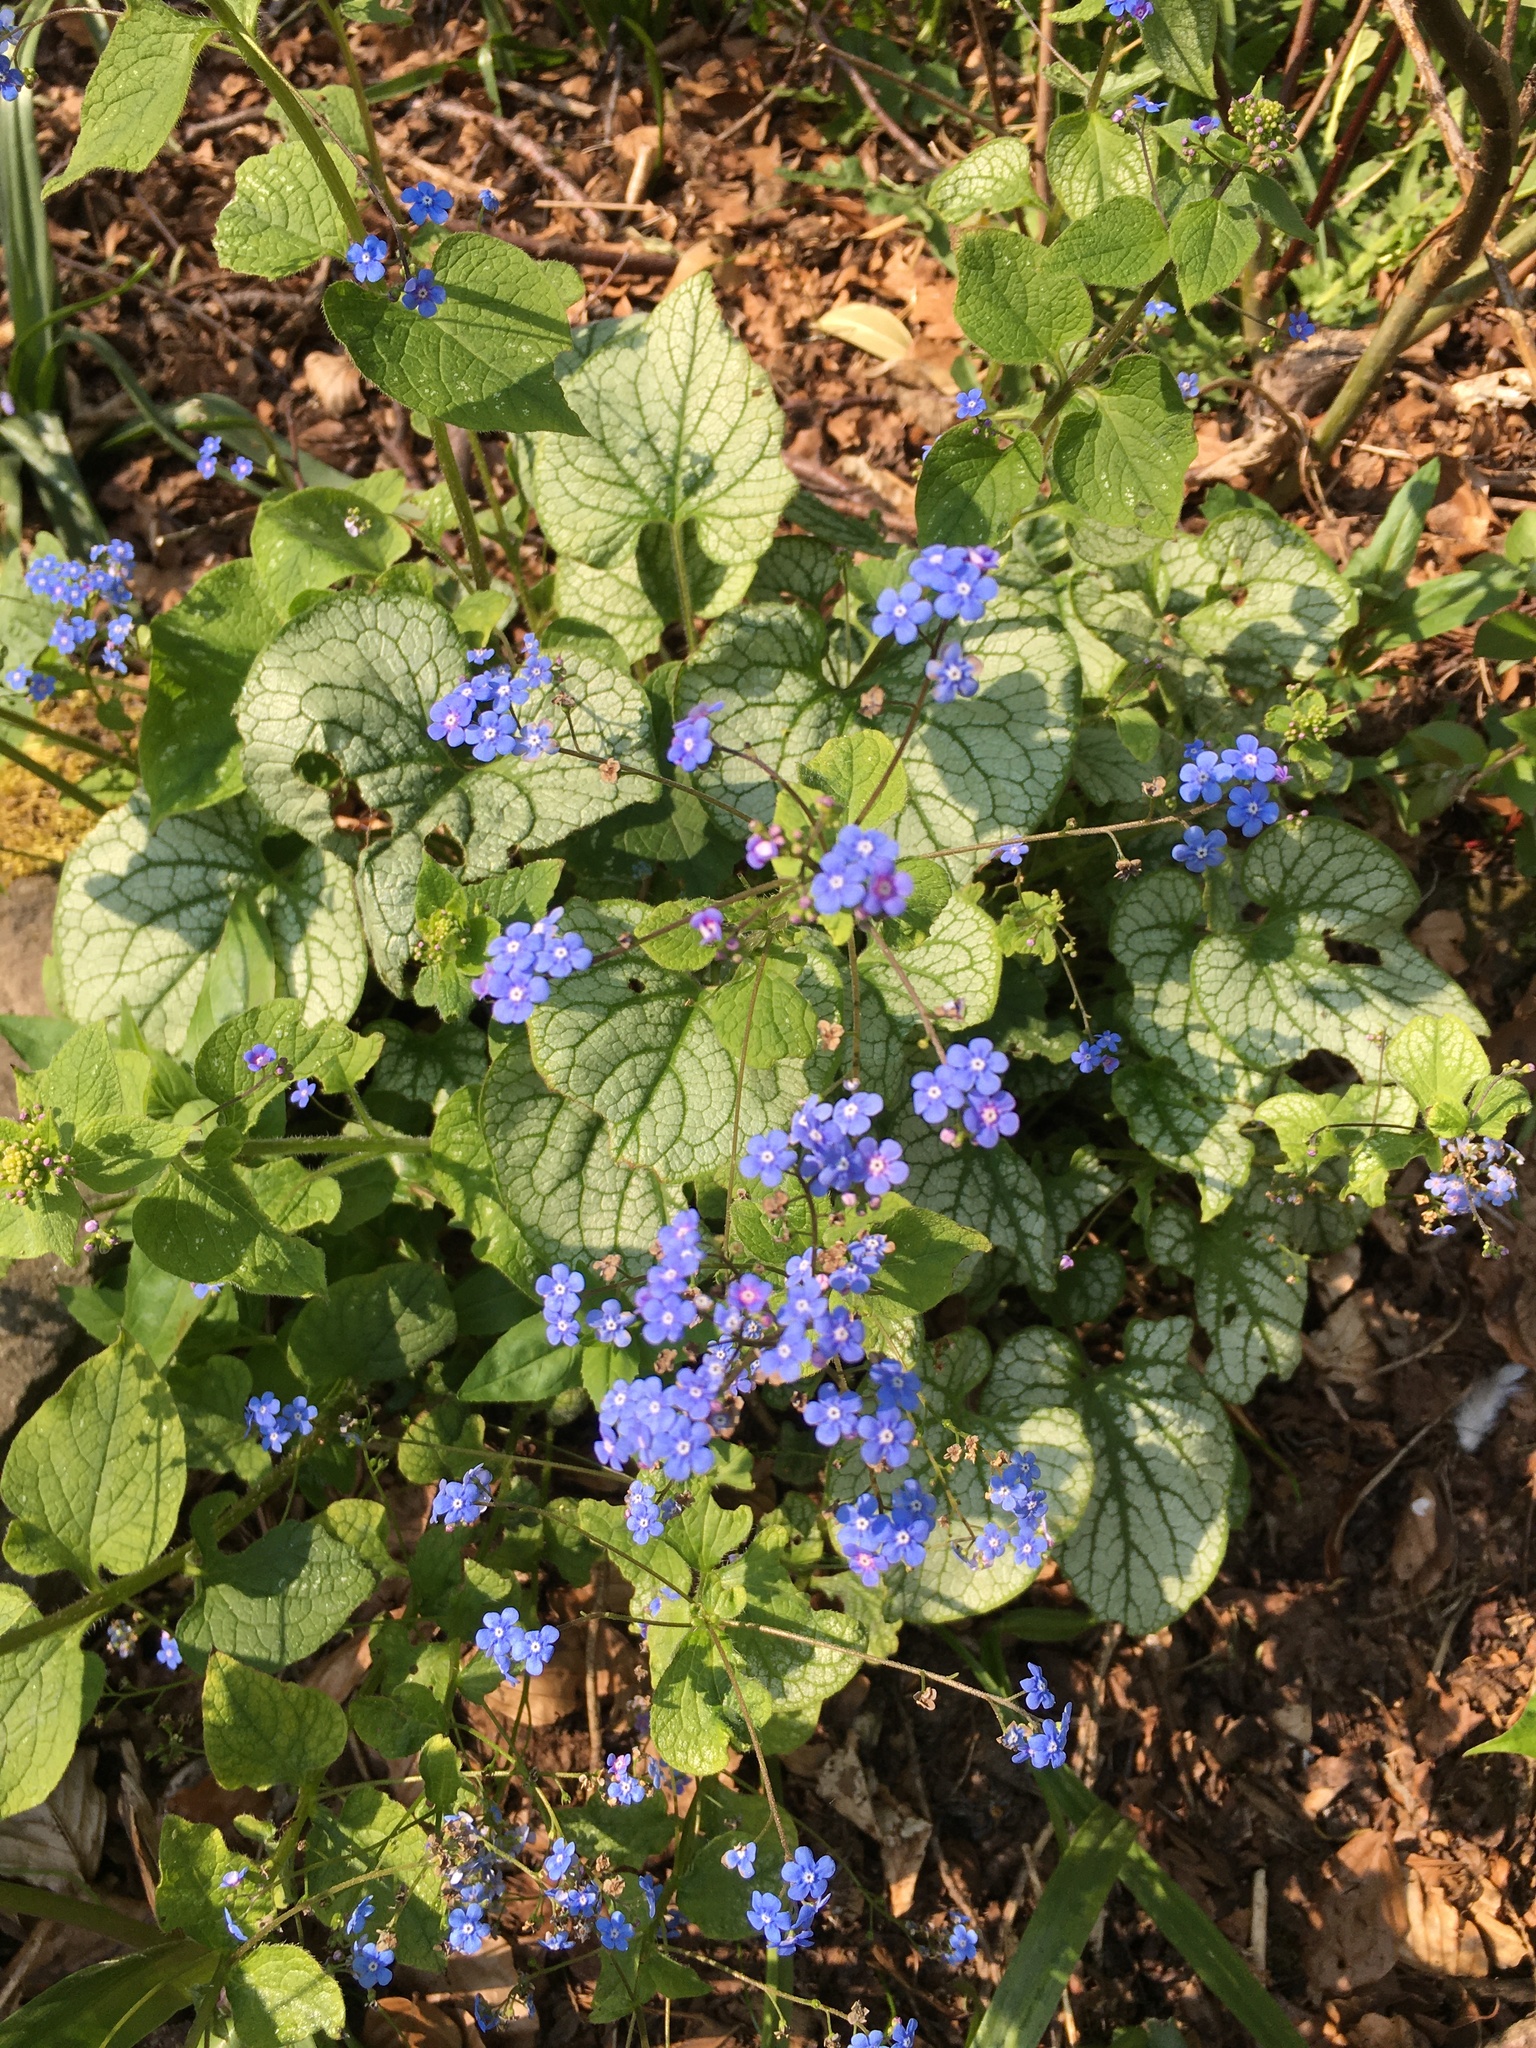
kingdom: Plantae
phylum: Tracheophyta
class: Magnoliopsida
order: Boraginales
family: Boraginaceae
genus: Brunnera
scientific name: Brunnera macrophylla
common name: Great forget-me-not
